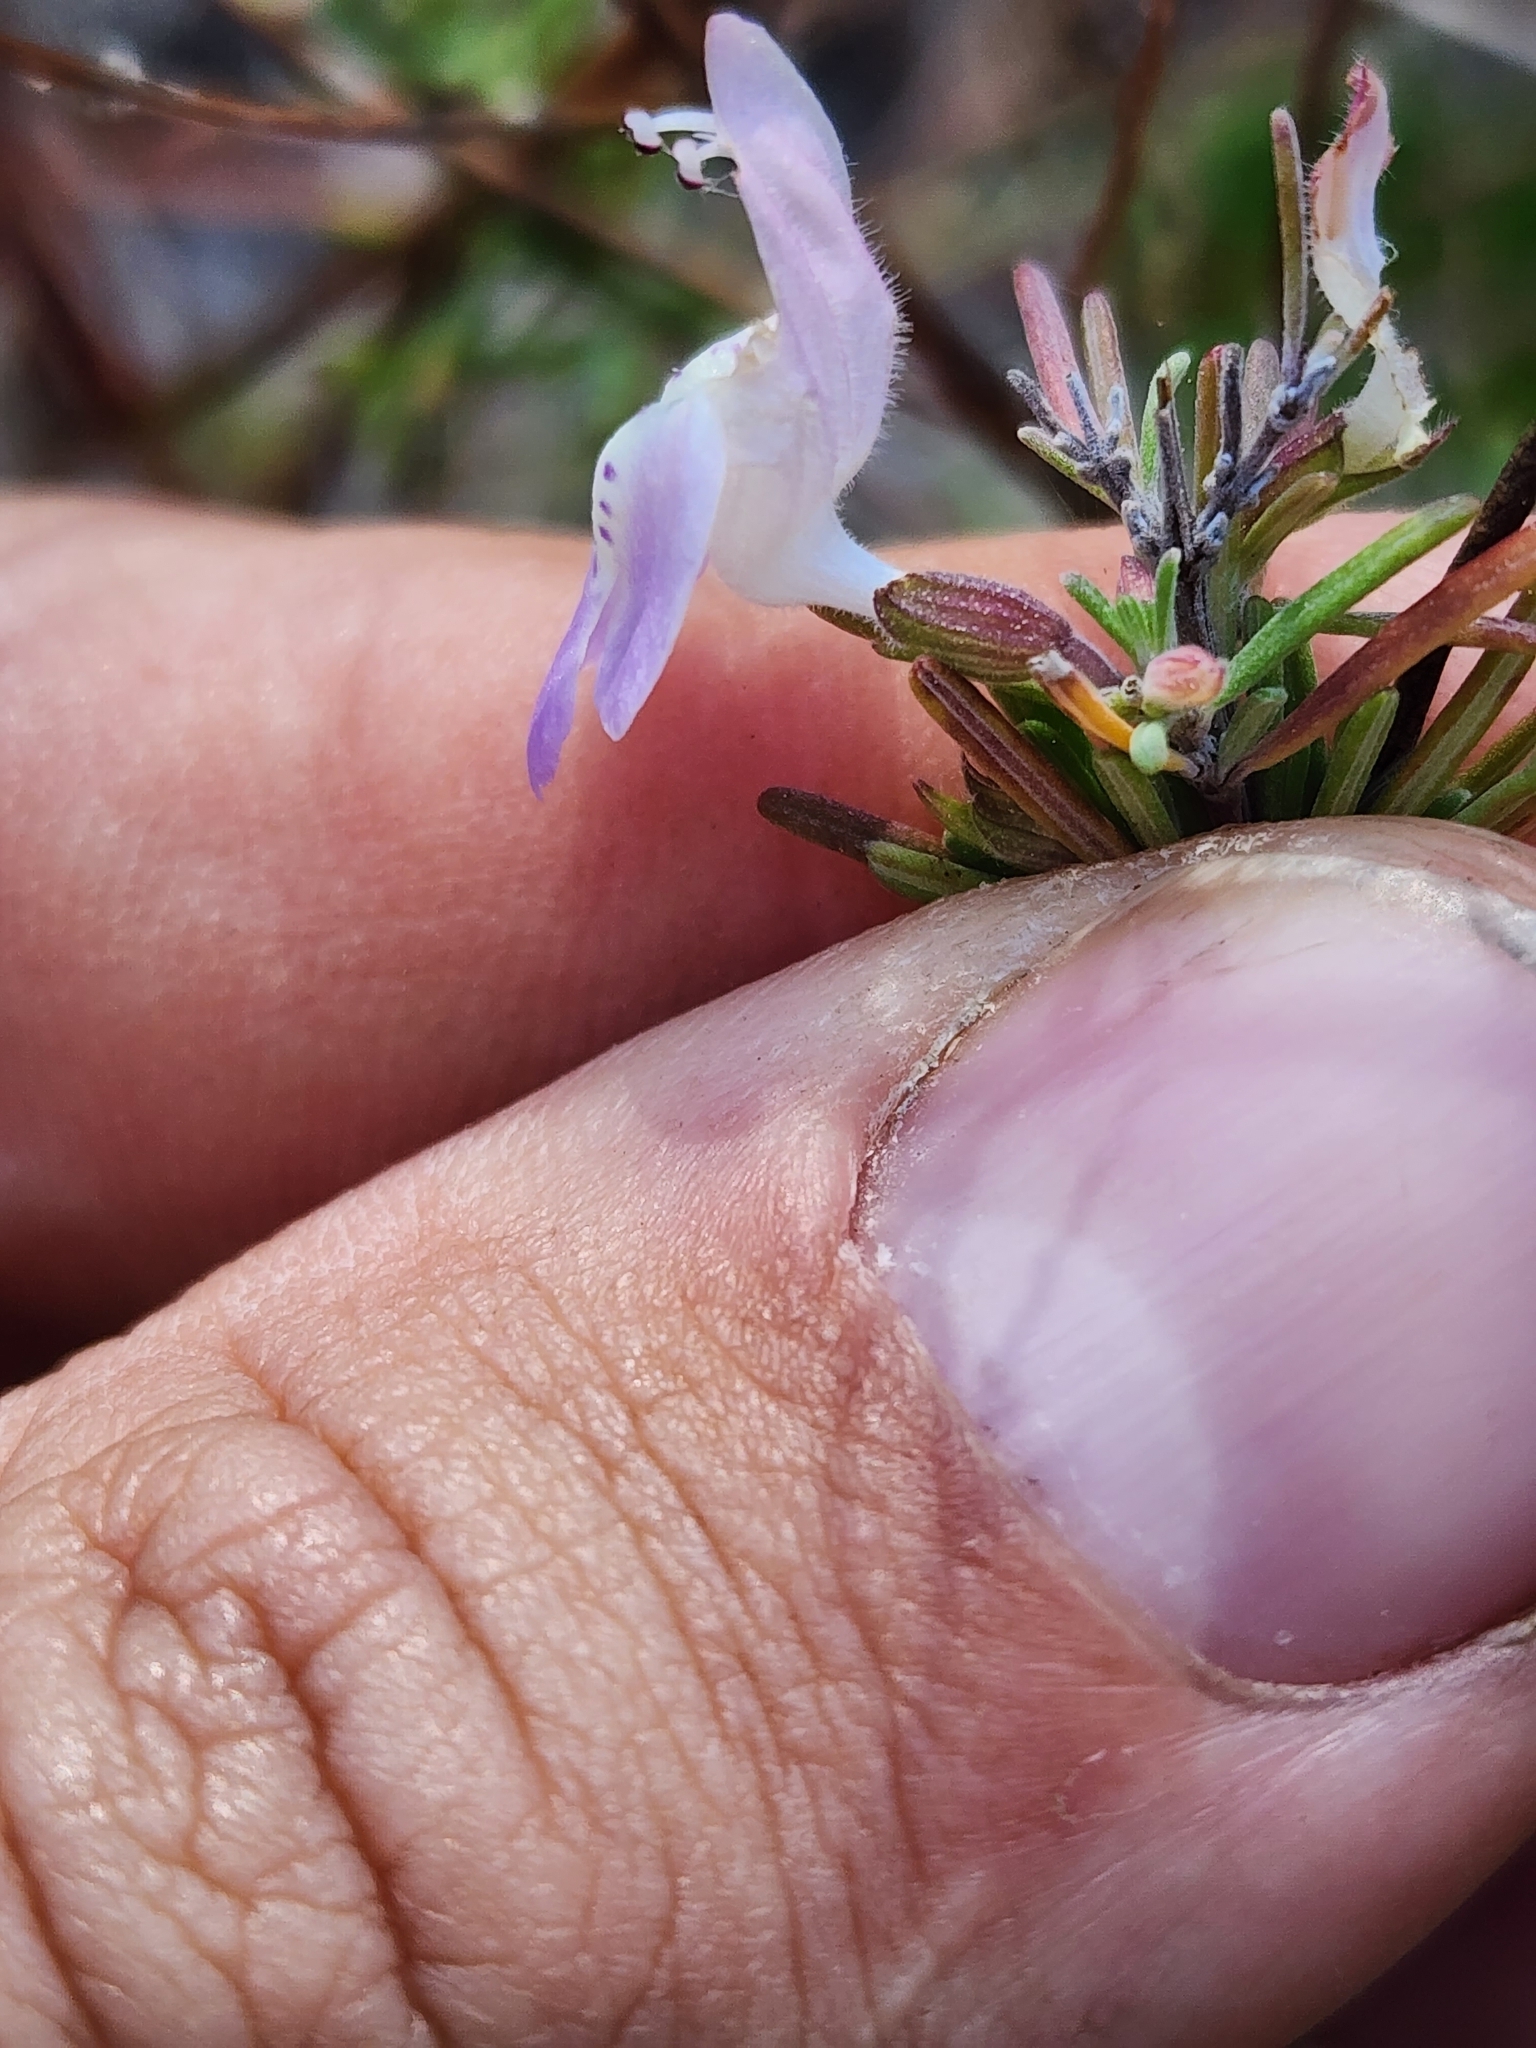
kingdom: Plantae
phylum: Tracheophyta
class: Magnoliopsida
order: Lamiales
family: Lamiaceae
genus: Conradina
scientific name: Conradina canescens
